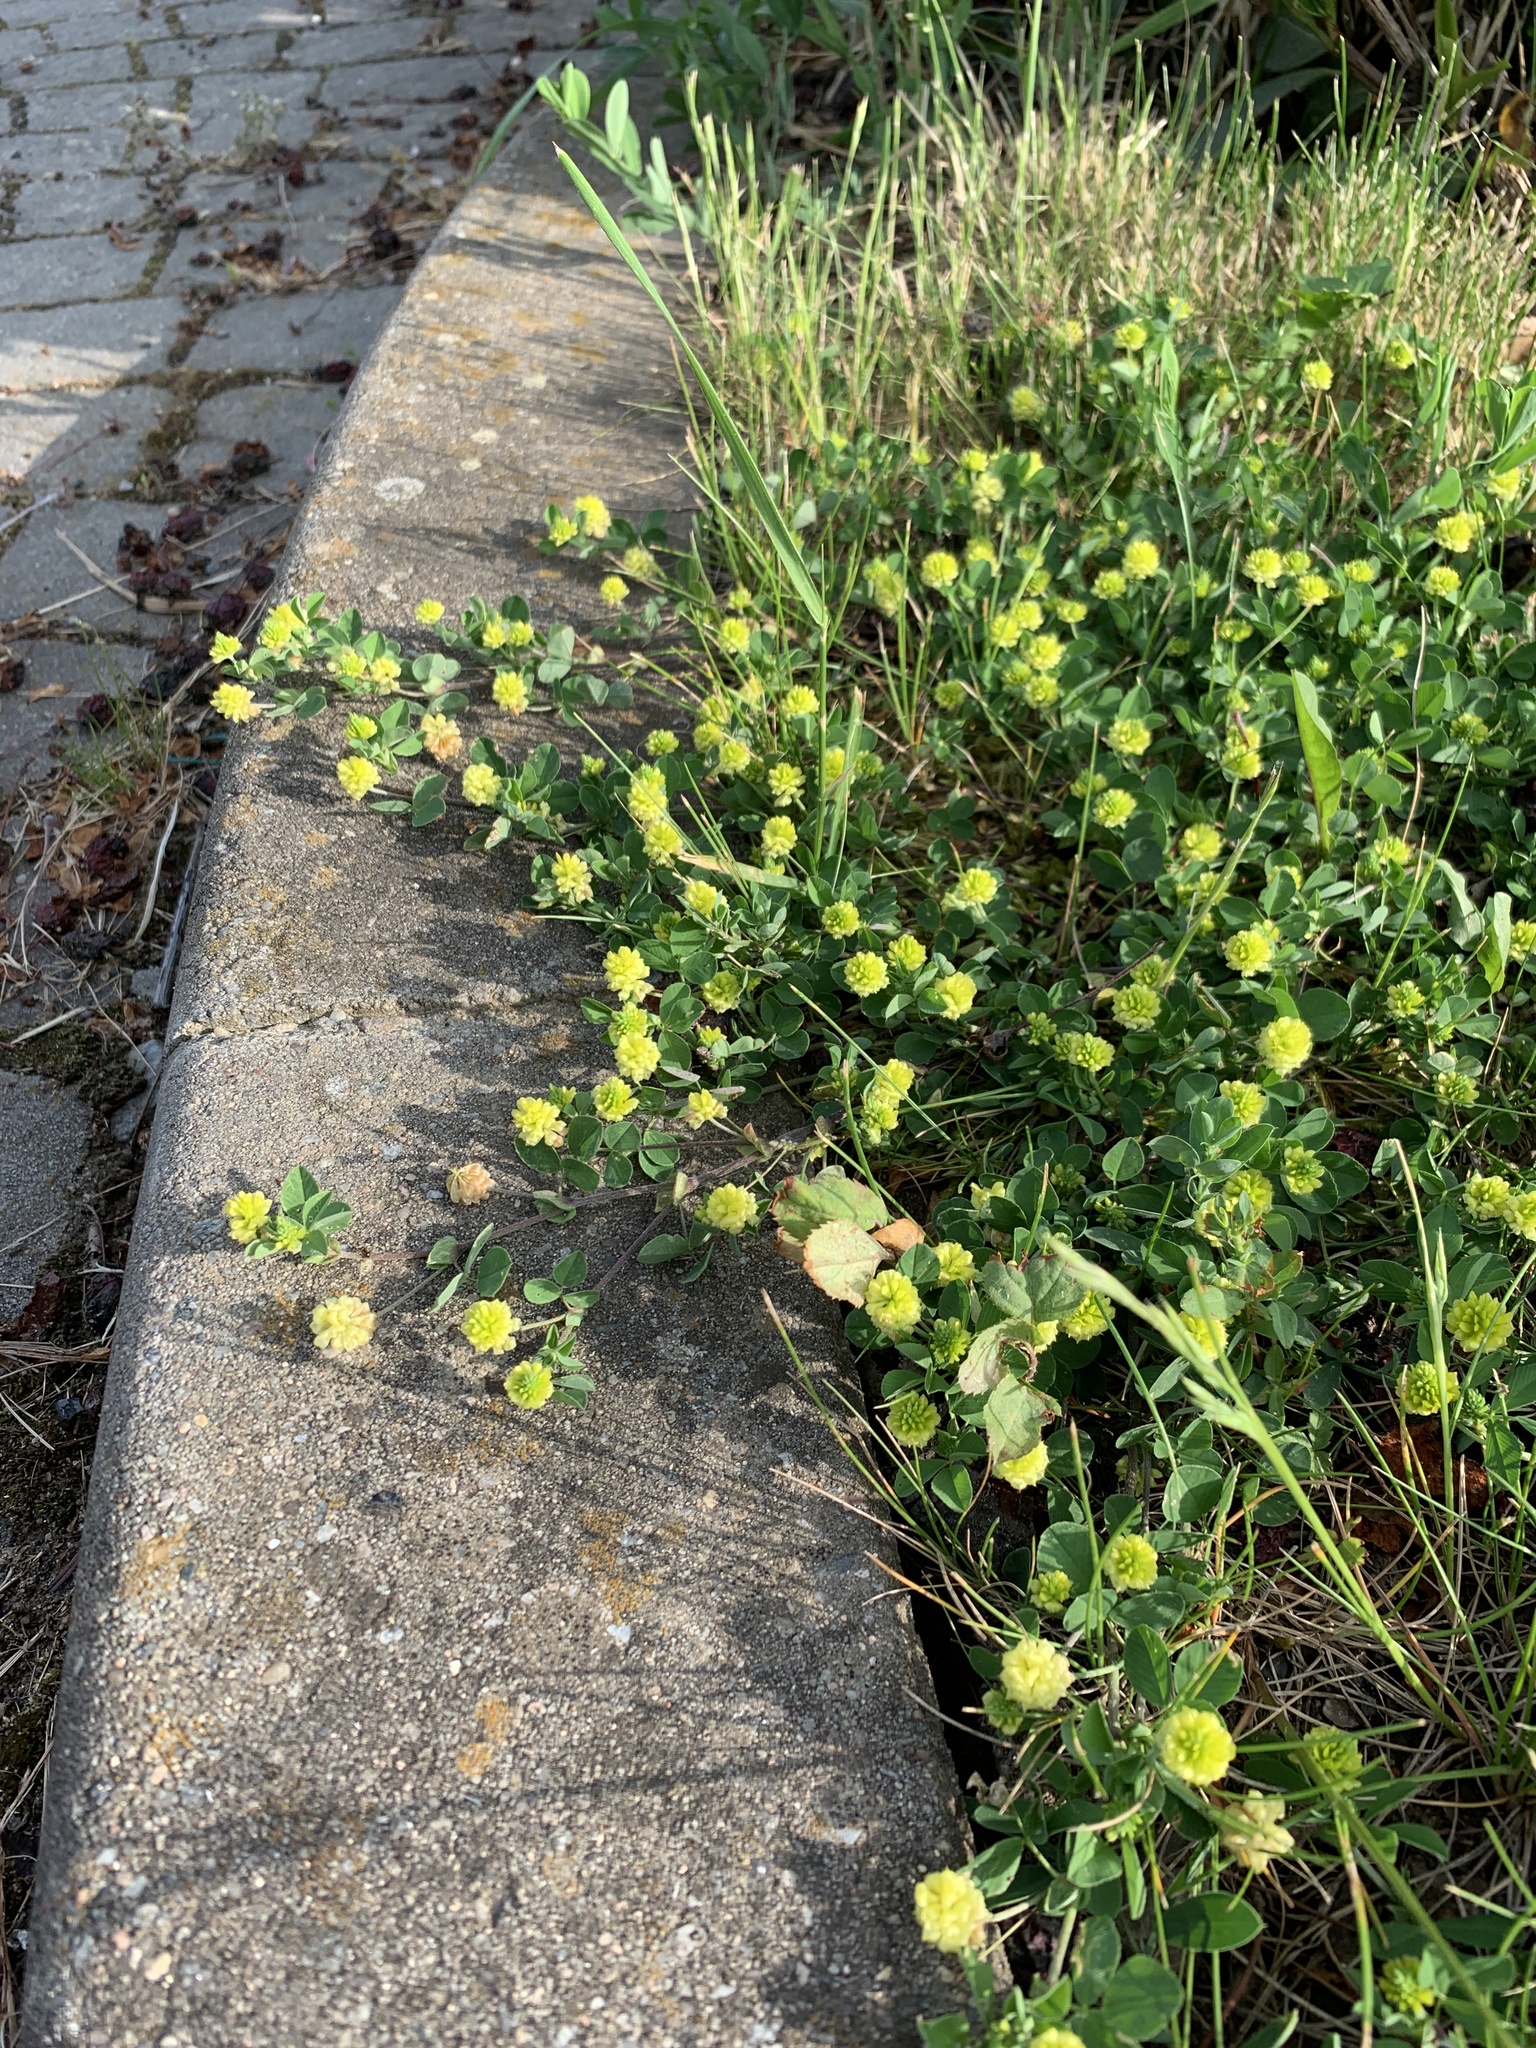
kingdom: Plantae
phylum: Tracheophyta
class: Magnoliopsida
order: Fabales
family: Fabaceae
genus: Trifolium
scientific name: Trifolium campestre
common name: Field clover
